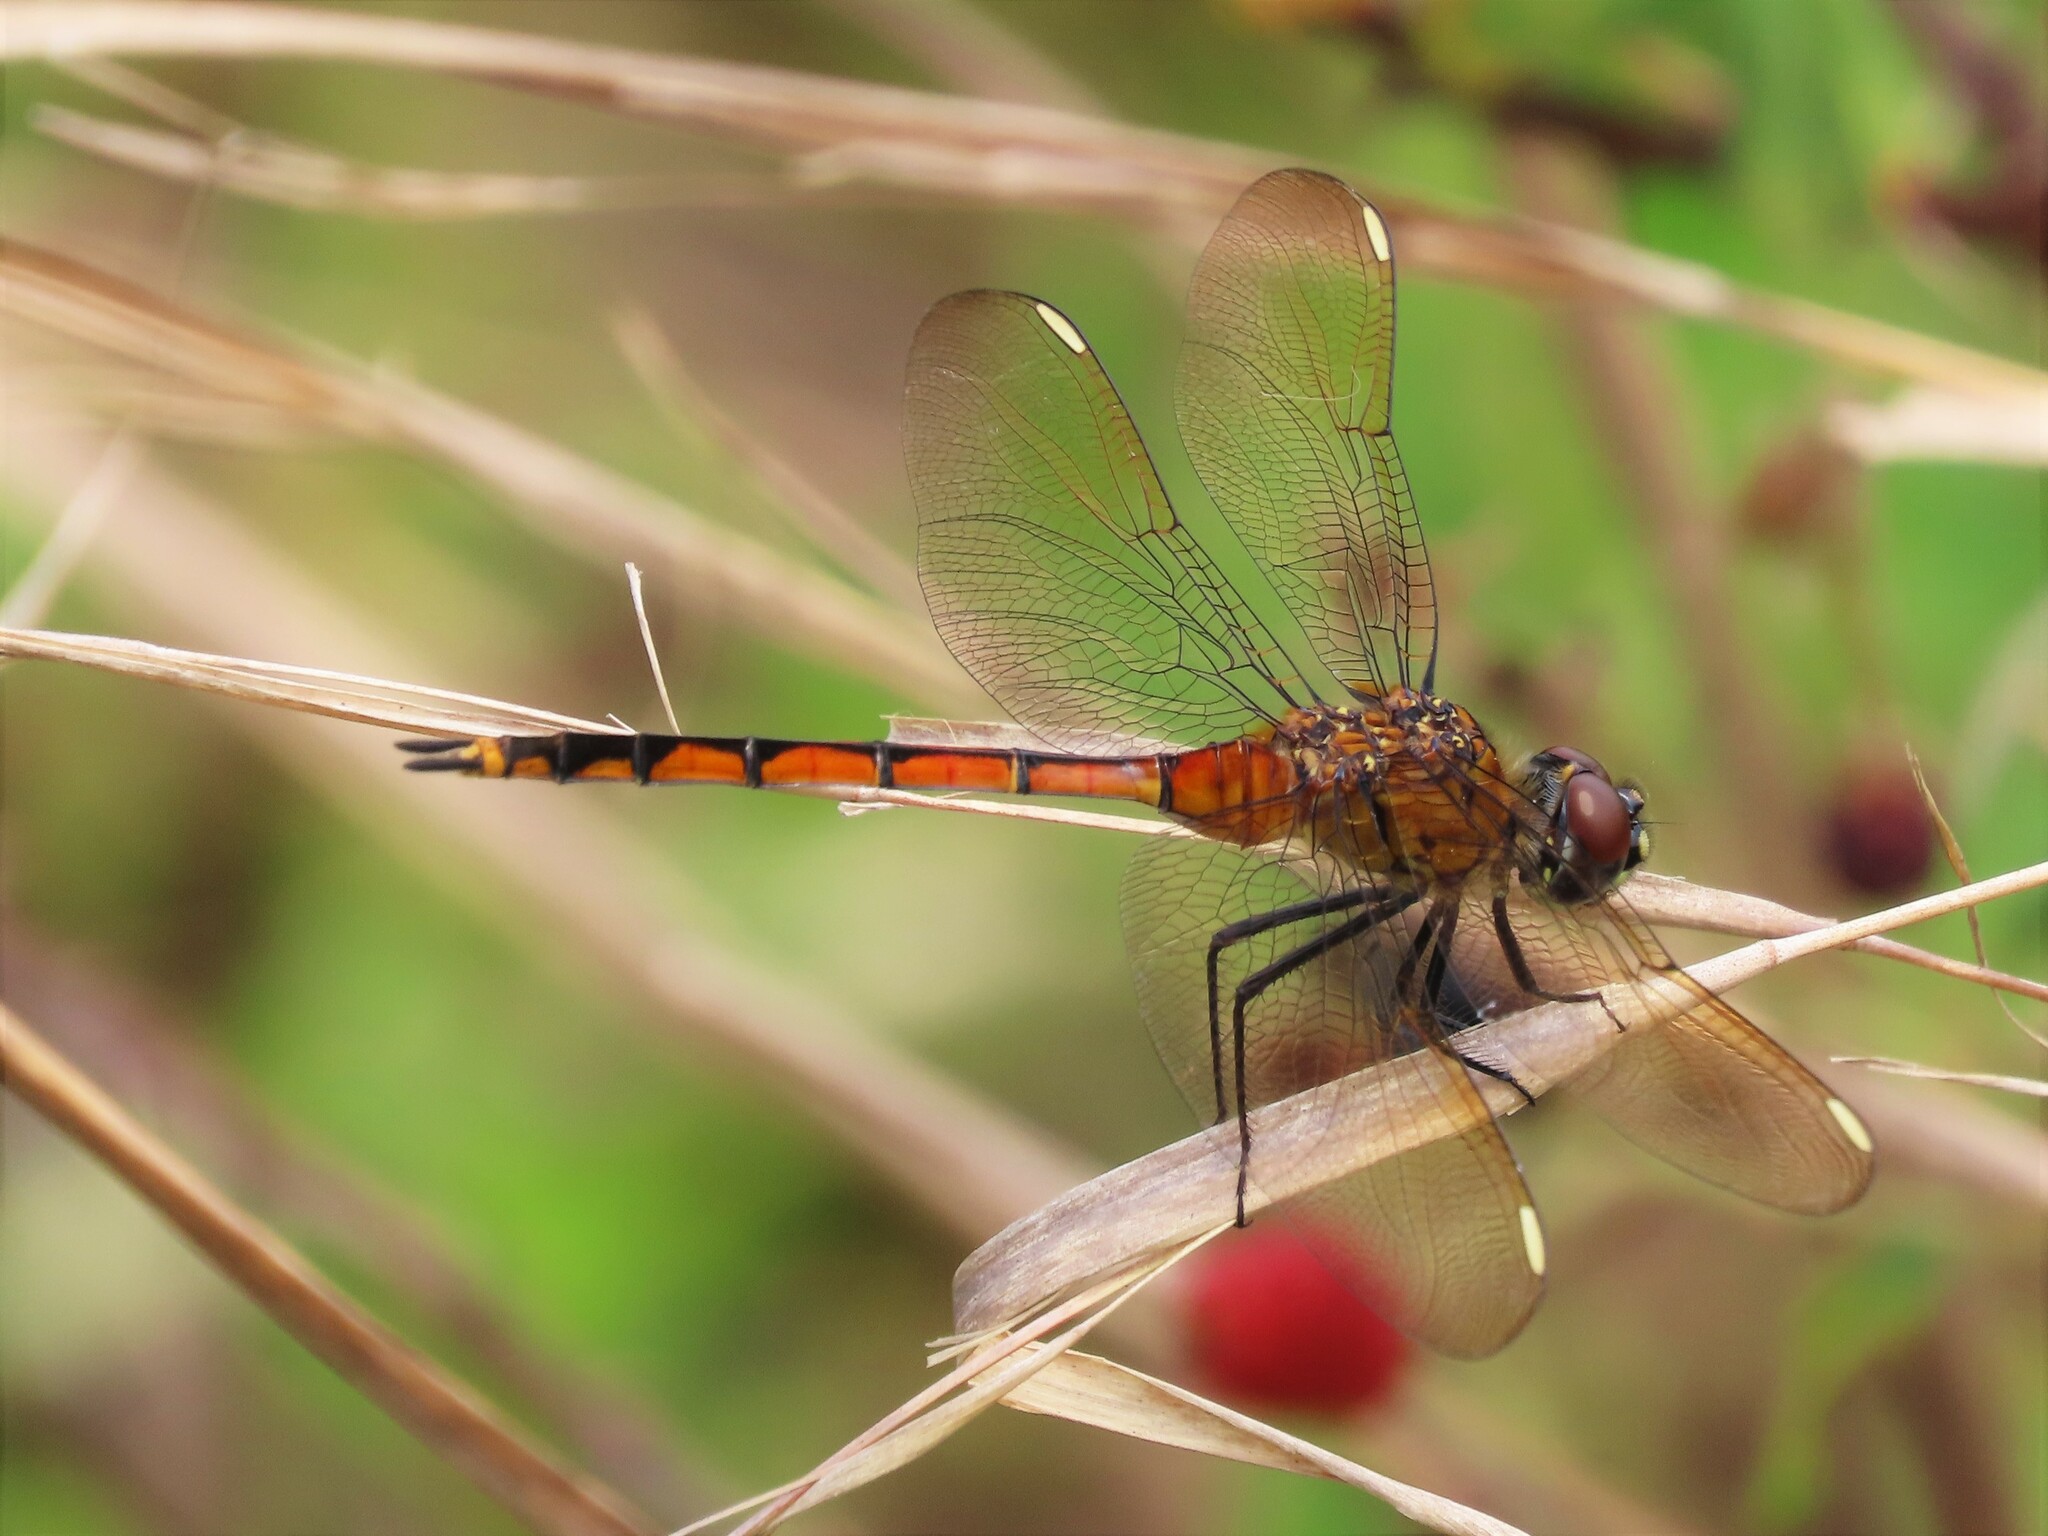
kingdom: Animalia
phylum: Arthropoda
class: Insecta
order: Odonata
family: Libellulidae
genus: Brachymesia
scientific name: Brachymesia gravida
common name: Four-spotted pennant
